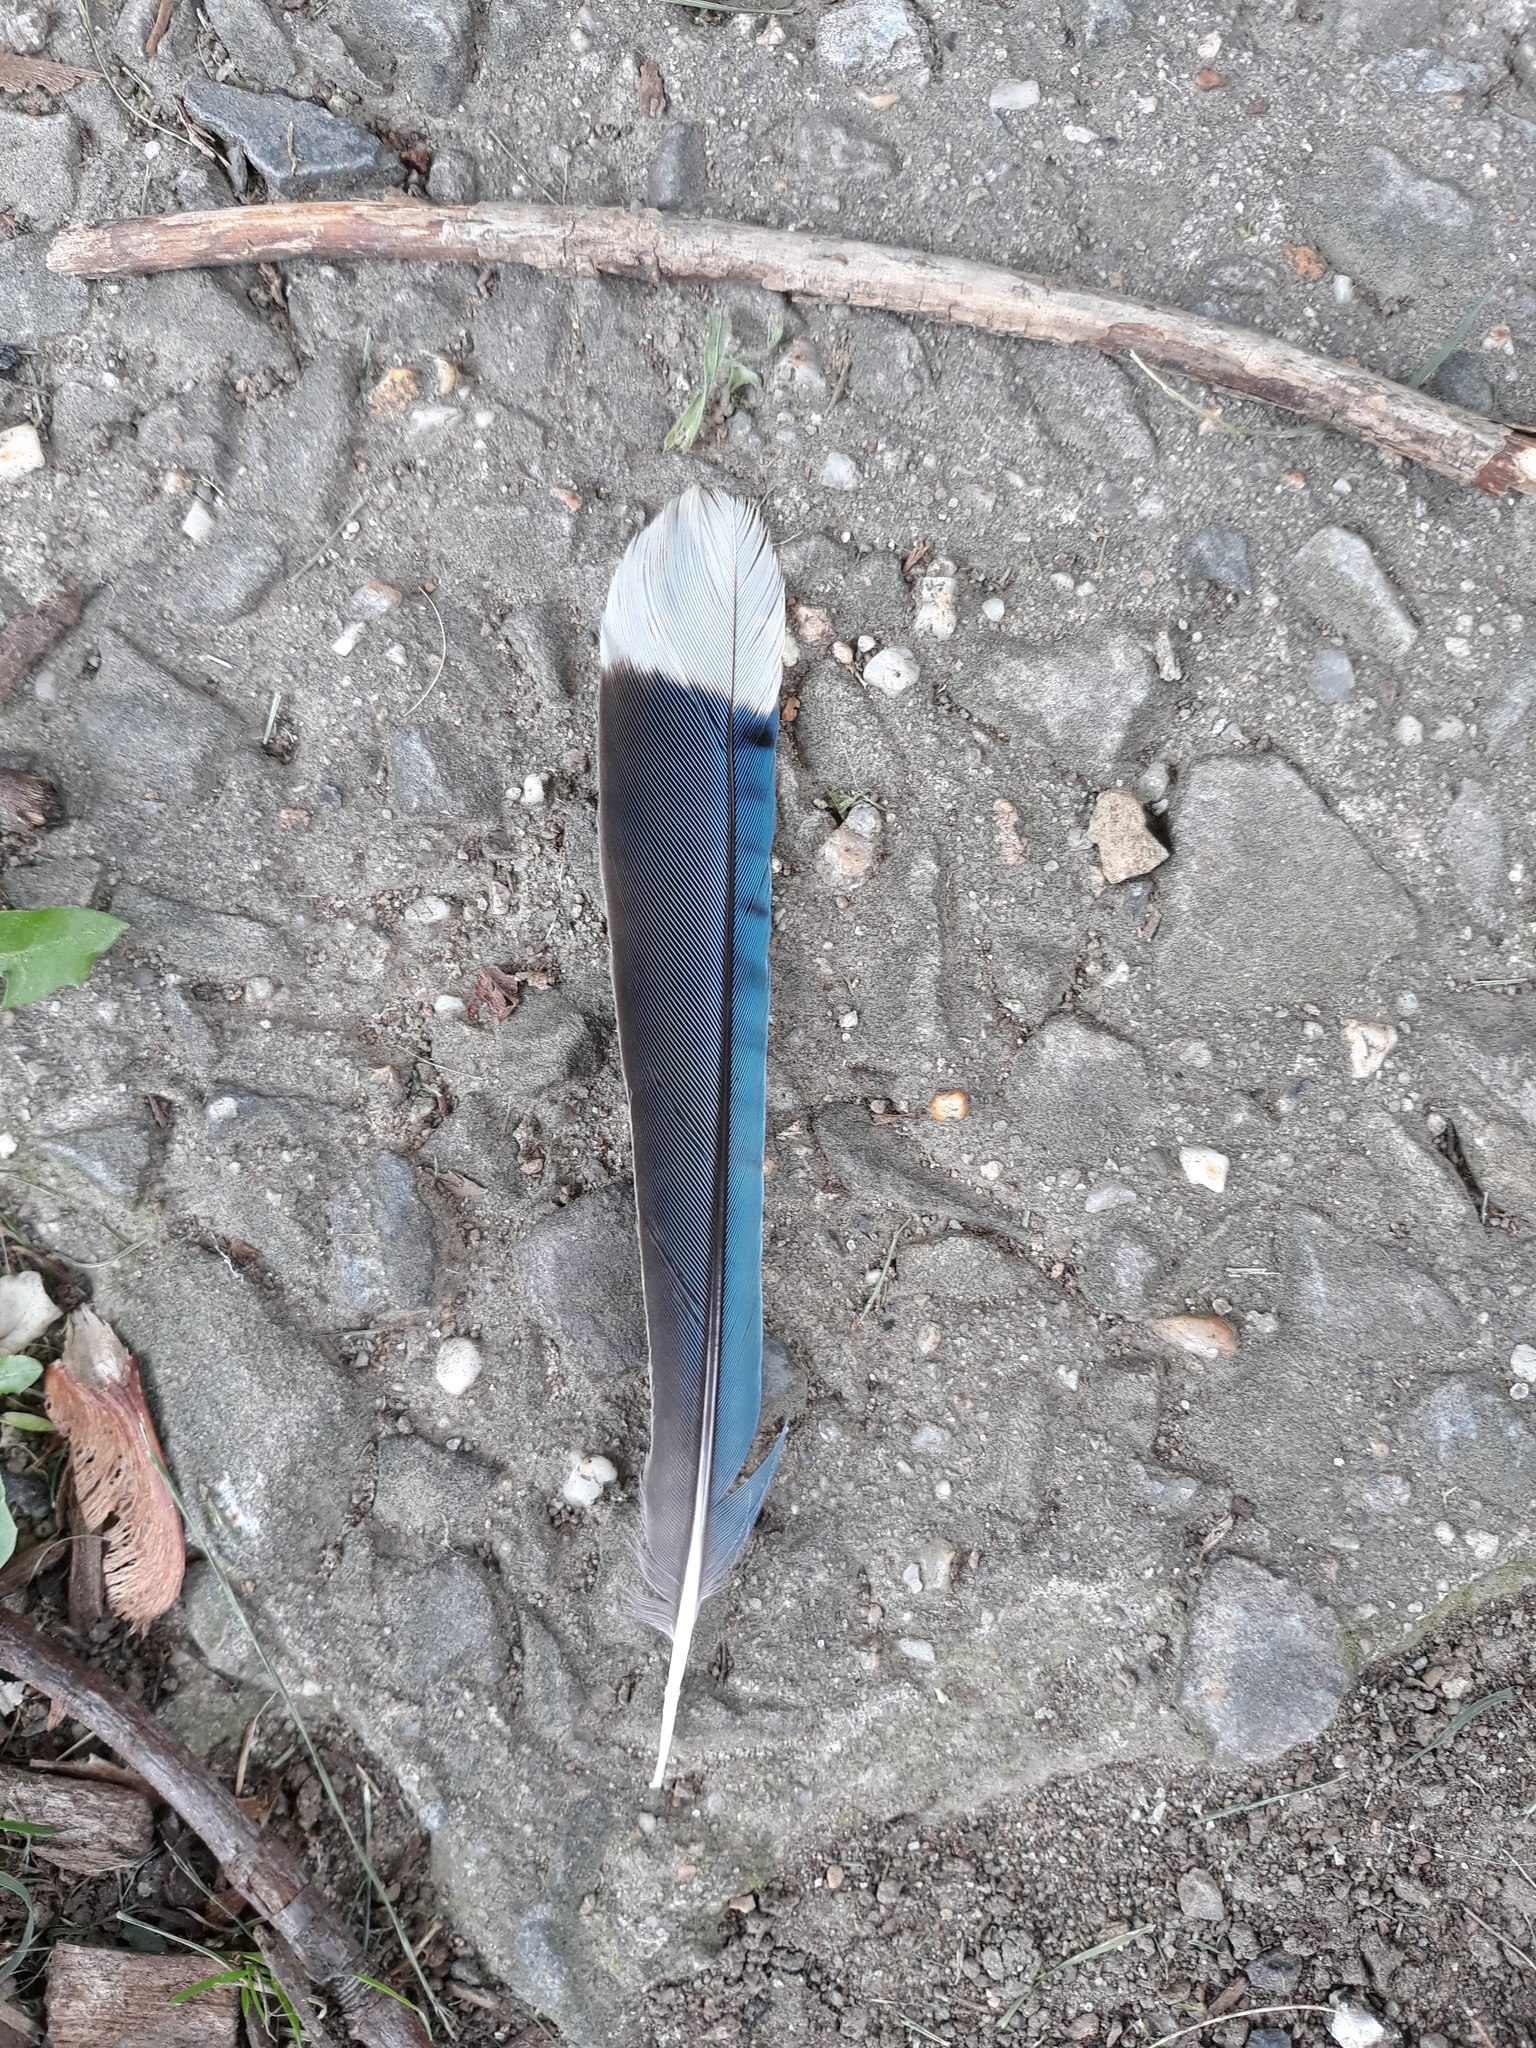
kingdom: Animalia
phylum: Chordata
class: Aves
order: Passeriformes
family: Corvidae
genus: Cyanocitta
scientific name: Cyanocitta cristata
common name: Blue jay
